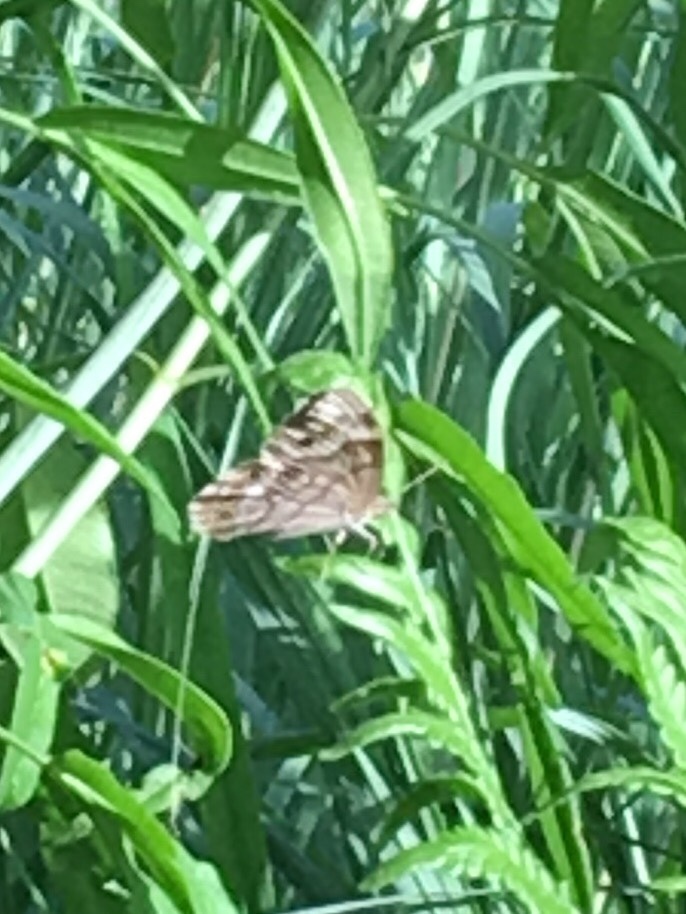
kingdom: Animalia
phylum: Arthropoda
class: Insecta
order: Lepidoptera
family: Nymphalidae
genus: Lethe
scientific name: Lethe anthedon
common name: Northern pearly-eye
